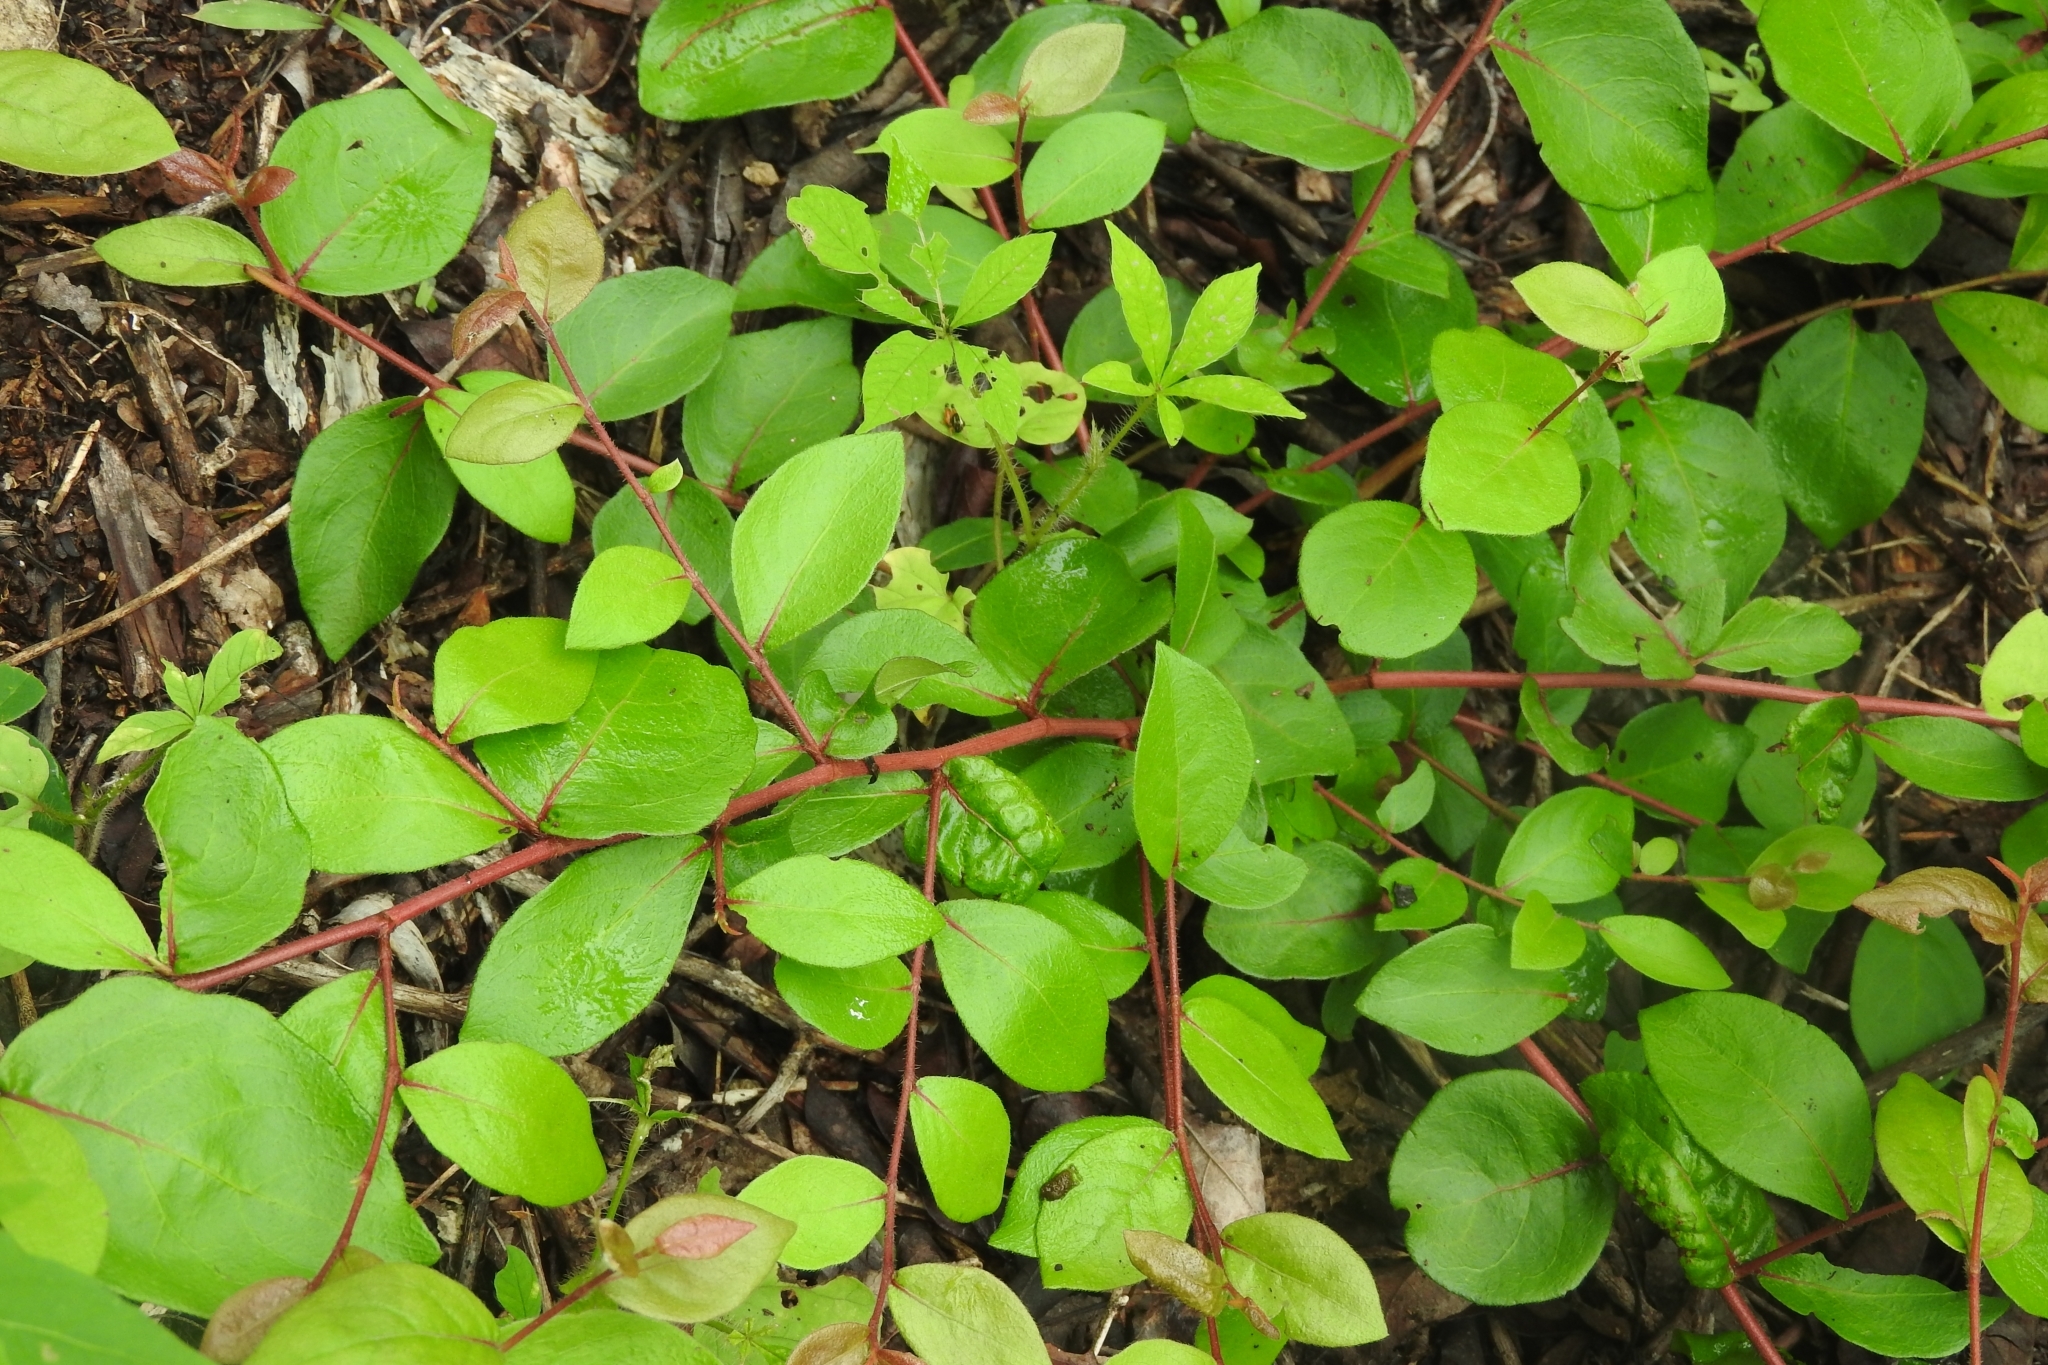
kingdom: Plantae
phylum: Tracheophyta
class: Magnoliopsida
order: Caryophyllales
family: Polygonaceae
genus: Gymnopodium
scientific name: Gymnopodium floribundum
